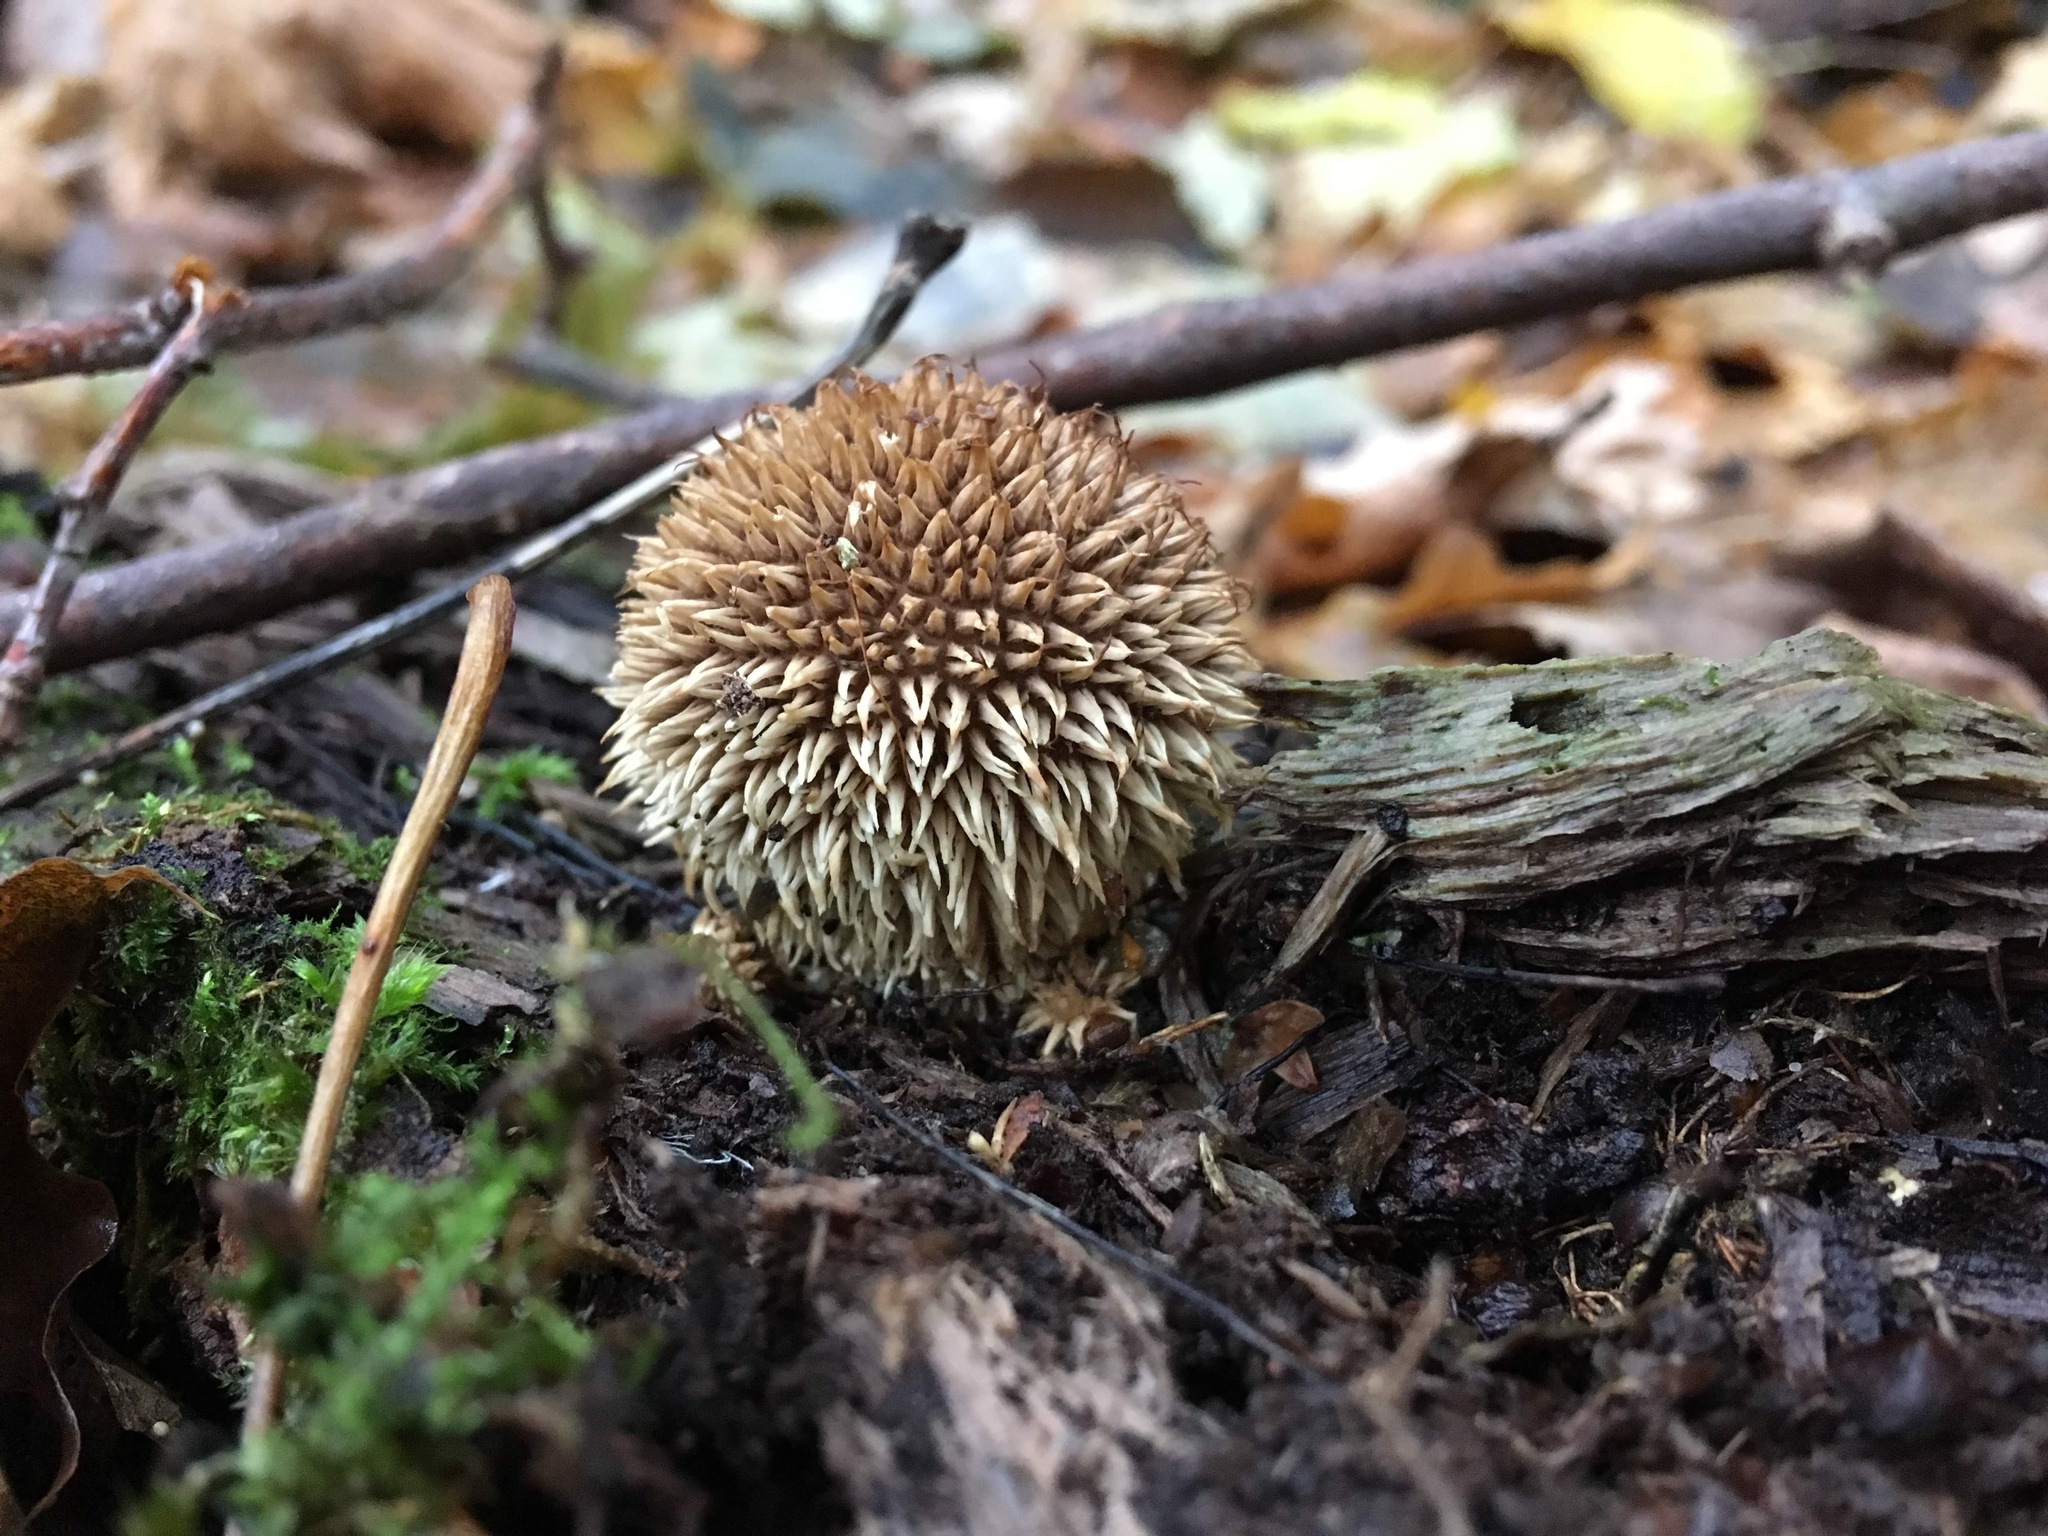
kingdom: Fungi
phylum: Basidiomycota
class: Agaricomycetes
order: Agaricales
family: Lycoperdaceae
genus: Lycoperdon
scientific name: Lycoperdon echinatum
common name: Hedgehog puffball
